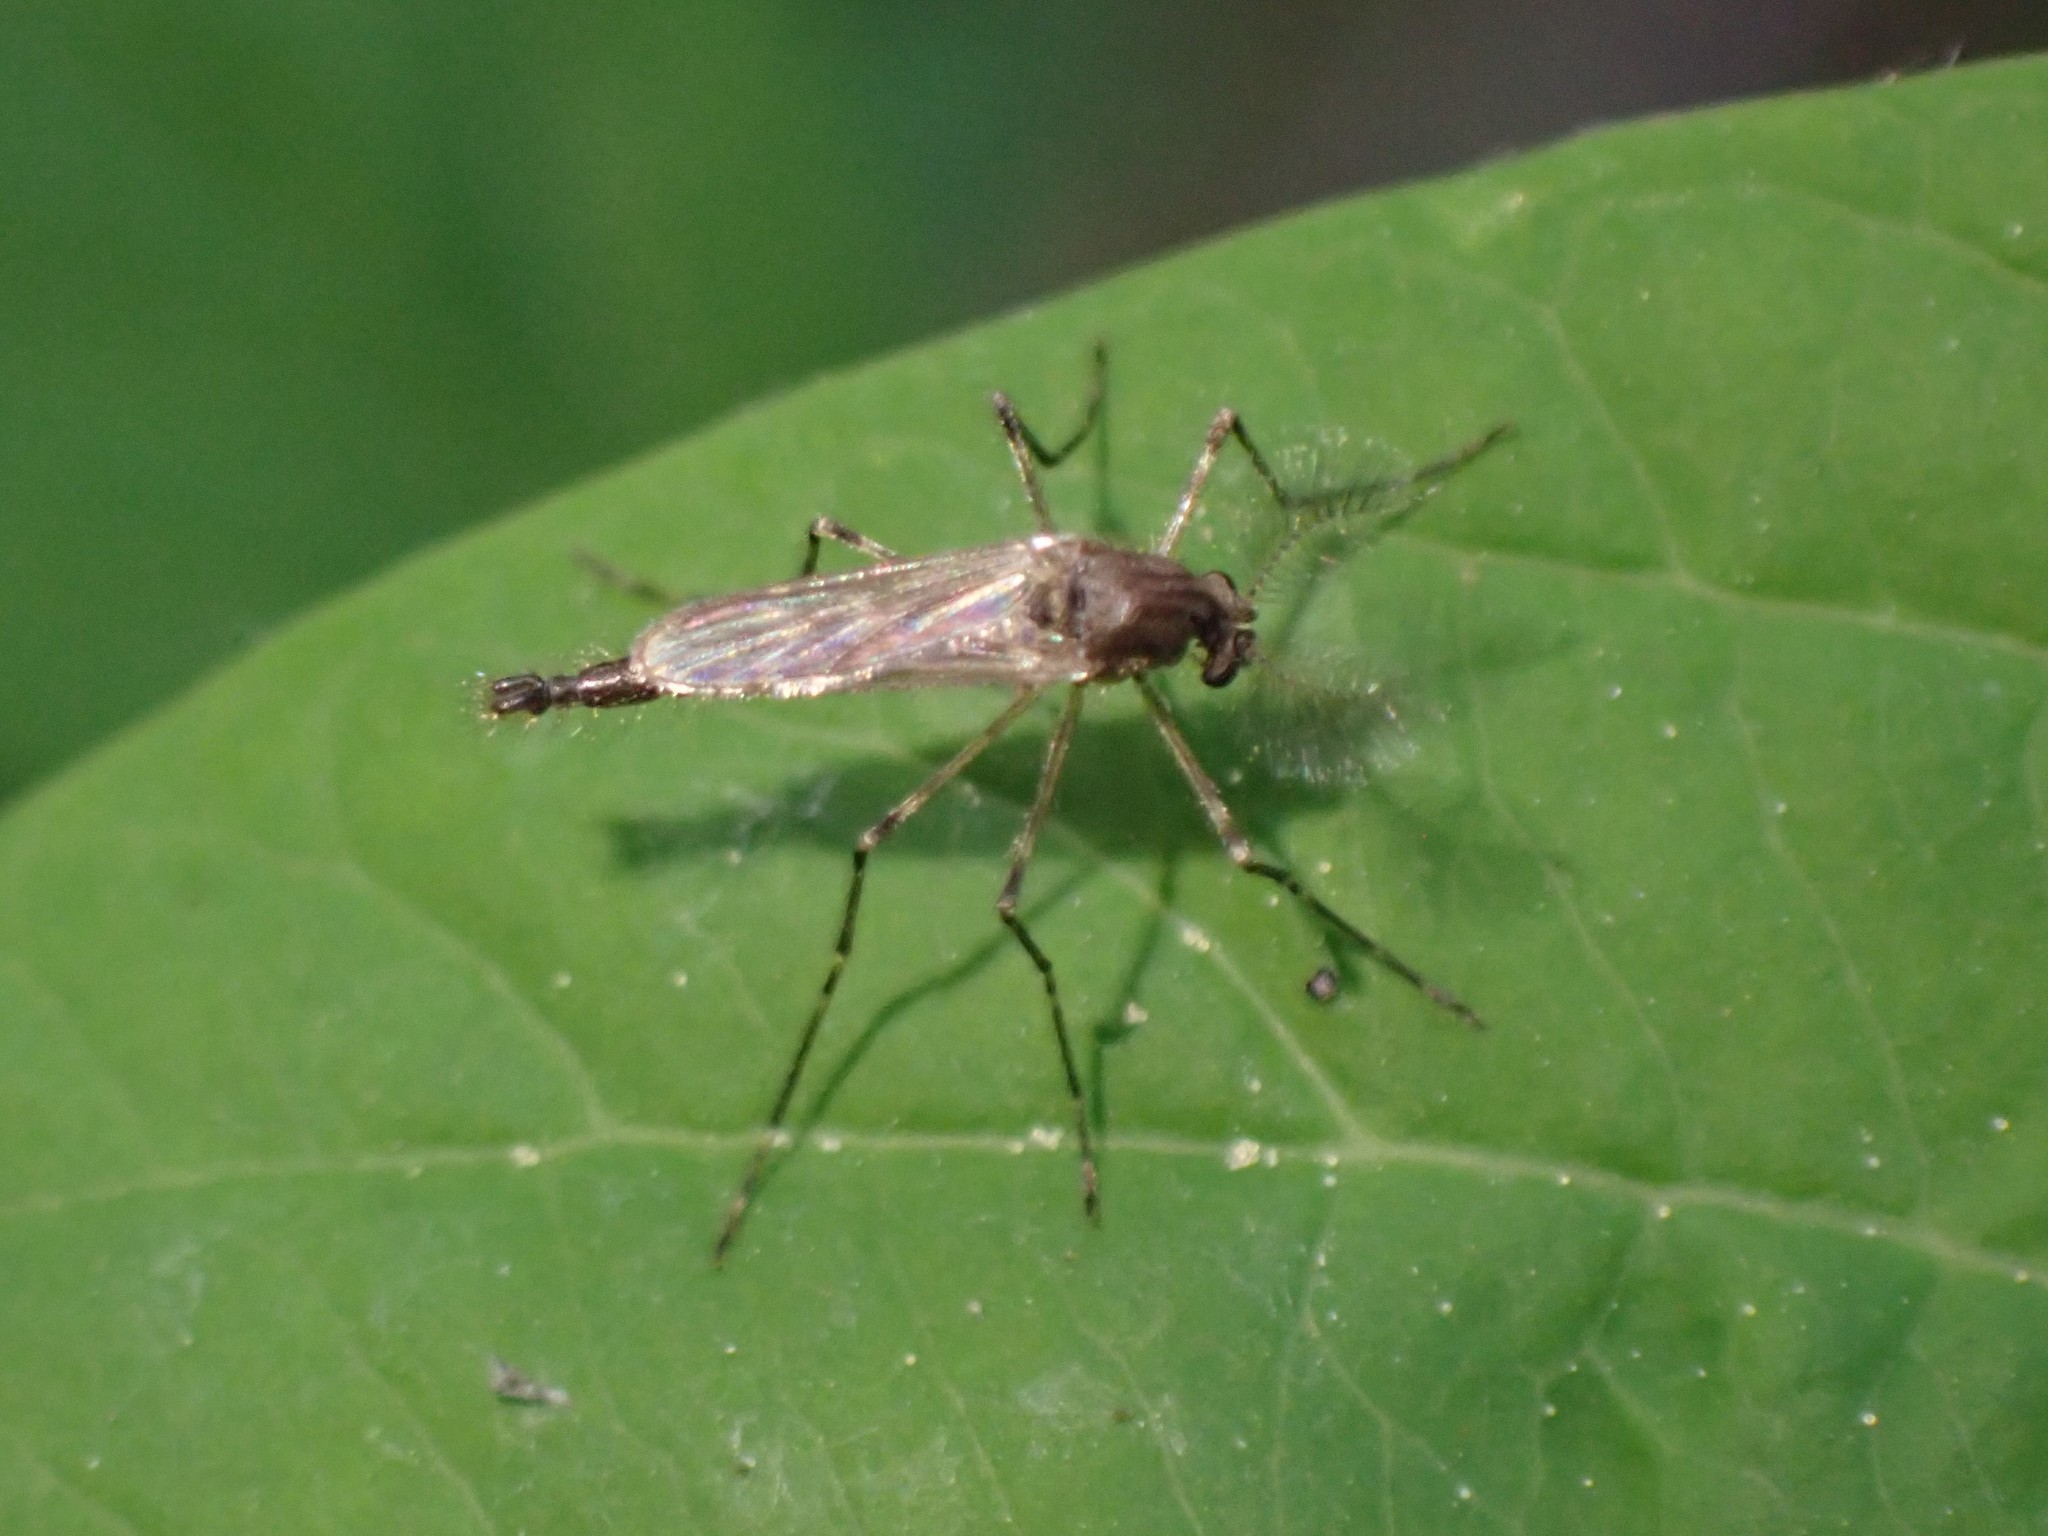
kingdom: Animalia
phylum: Arthropoda
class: Insecta
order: Diptera
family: Chaoboridae
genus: Mochlonyx
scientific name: Mochlonyx cinctipes
